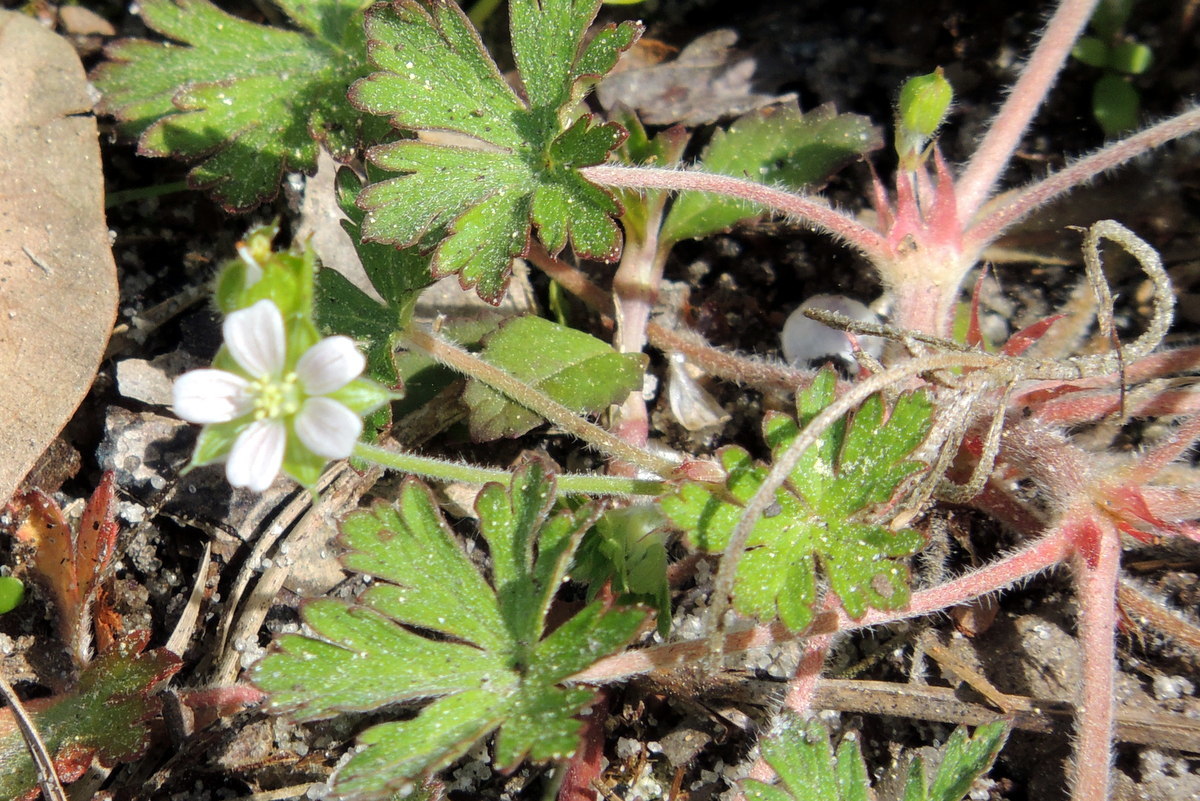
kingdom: Plantae
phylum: Tracheophyta
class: Magnoliopsida
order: Geraniales
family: Geraniaceae
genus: Geranium
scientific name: Geranium carolinianum
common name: Carolina crane's-bill
